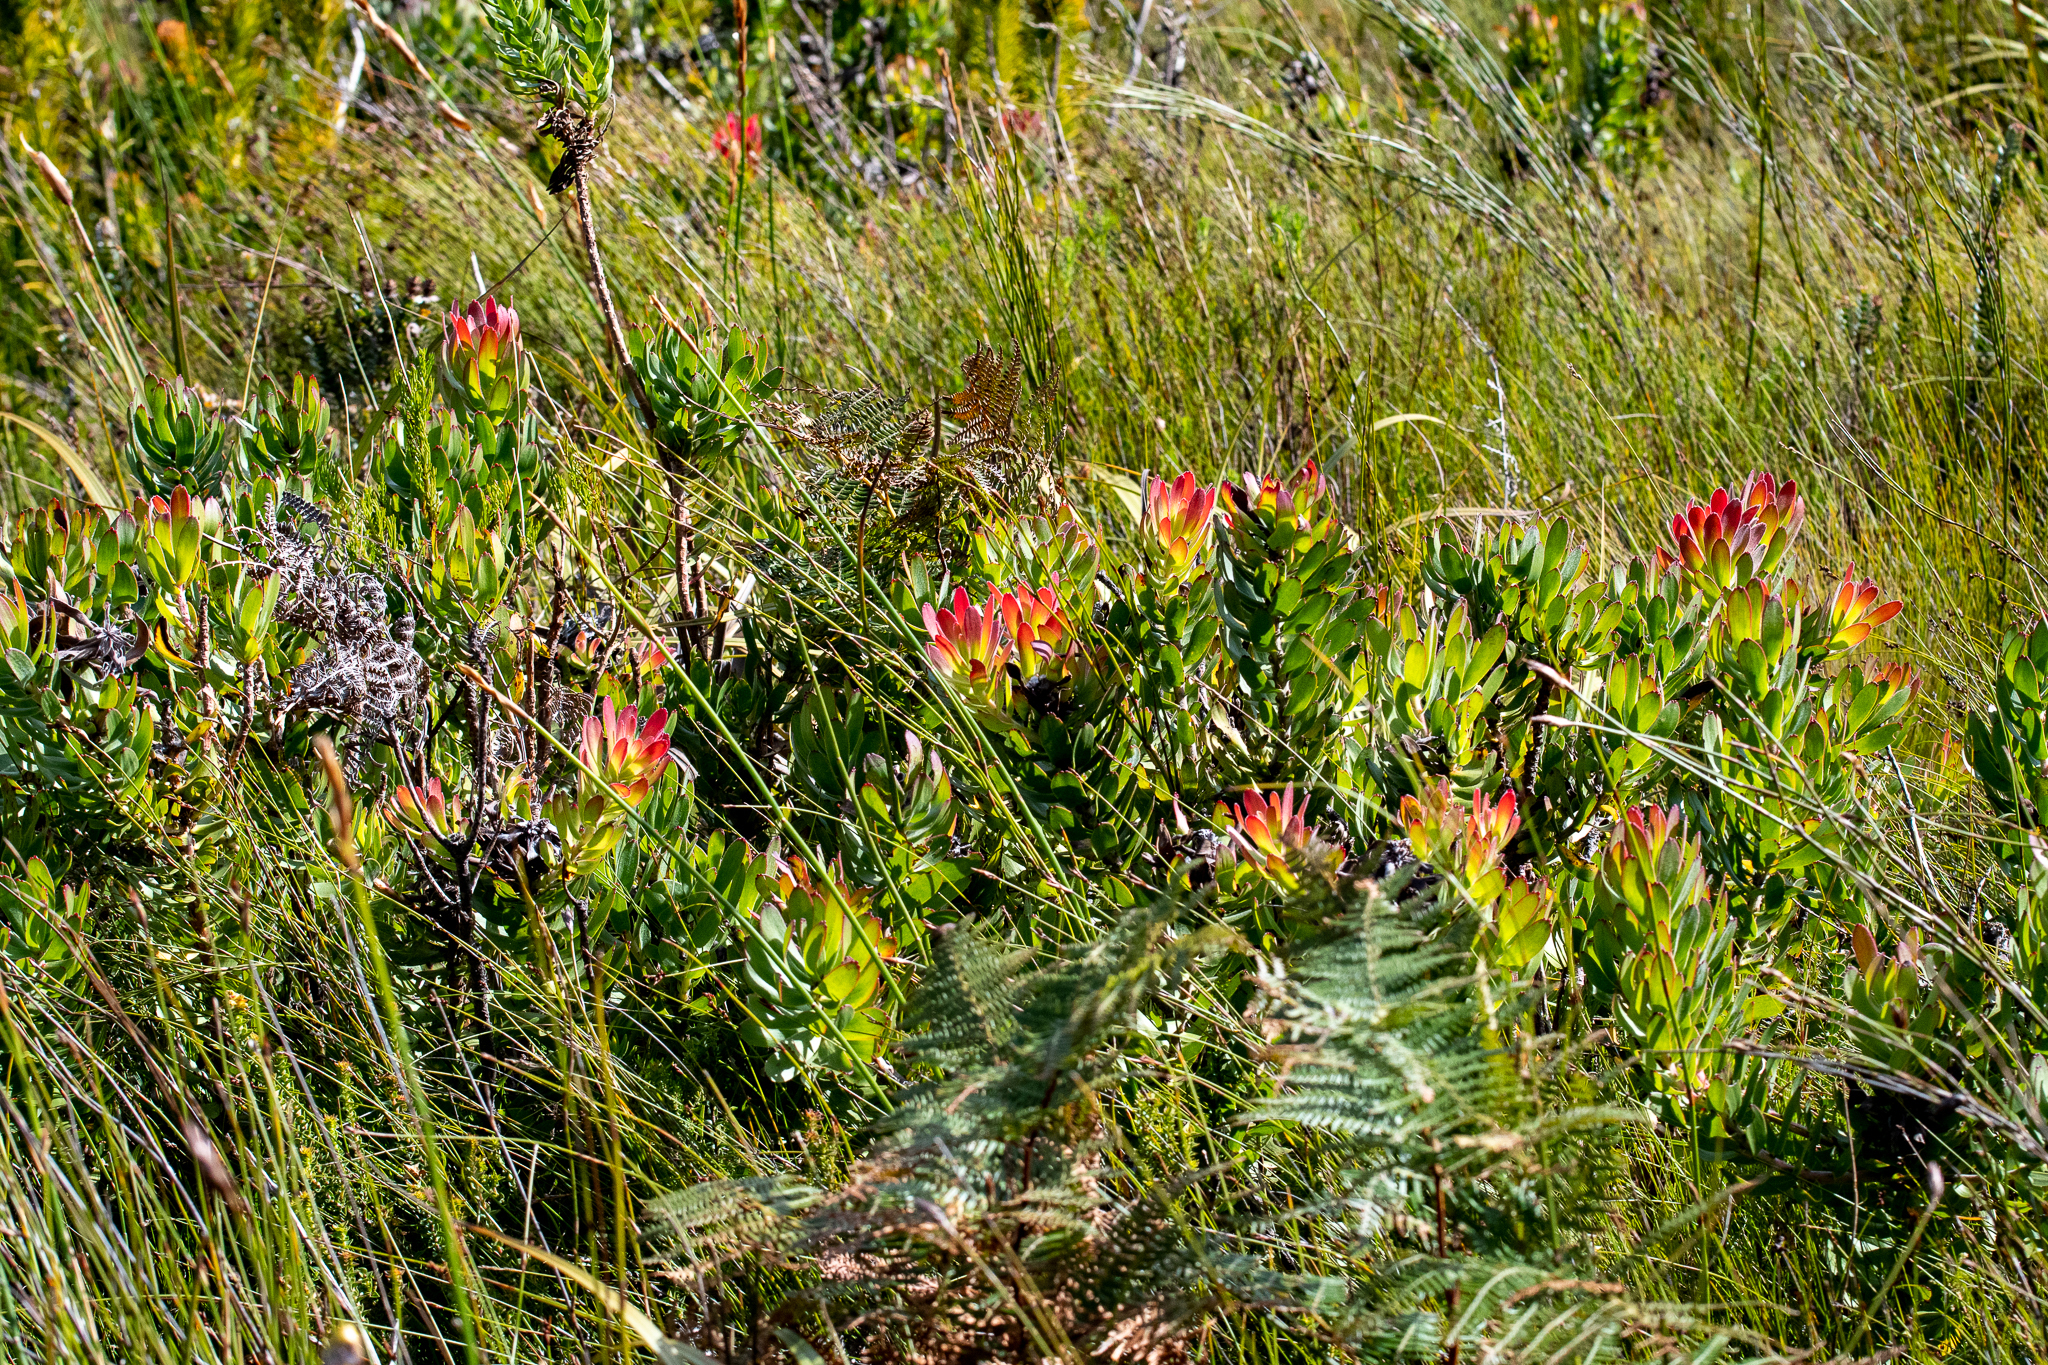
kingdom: Plantae
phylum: Tracheophyta
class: Magnoliopsida
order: Proteales
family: Proteaceae
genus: Mimetes
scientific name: Mimetes cucullatus
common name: Common pagoda
